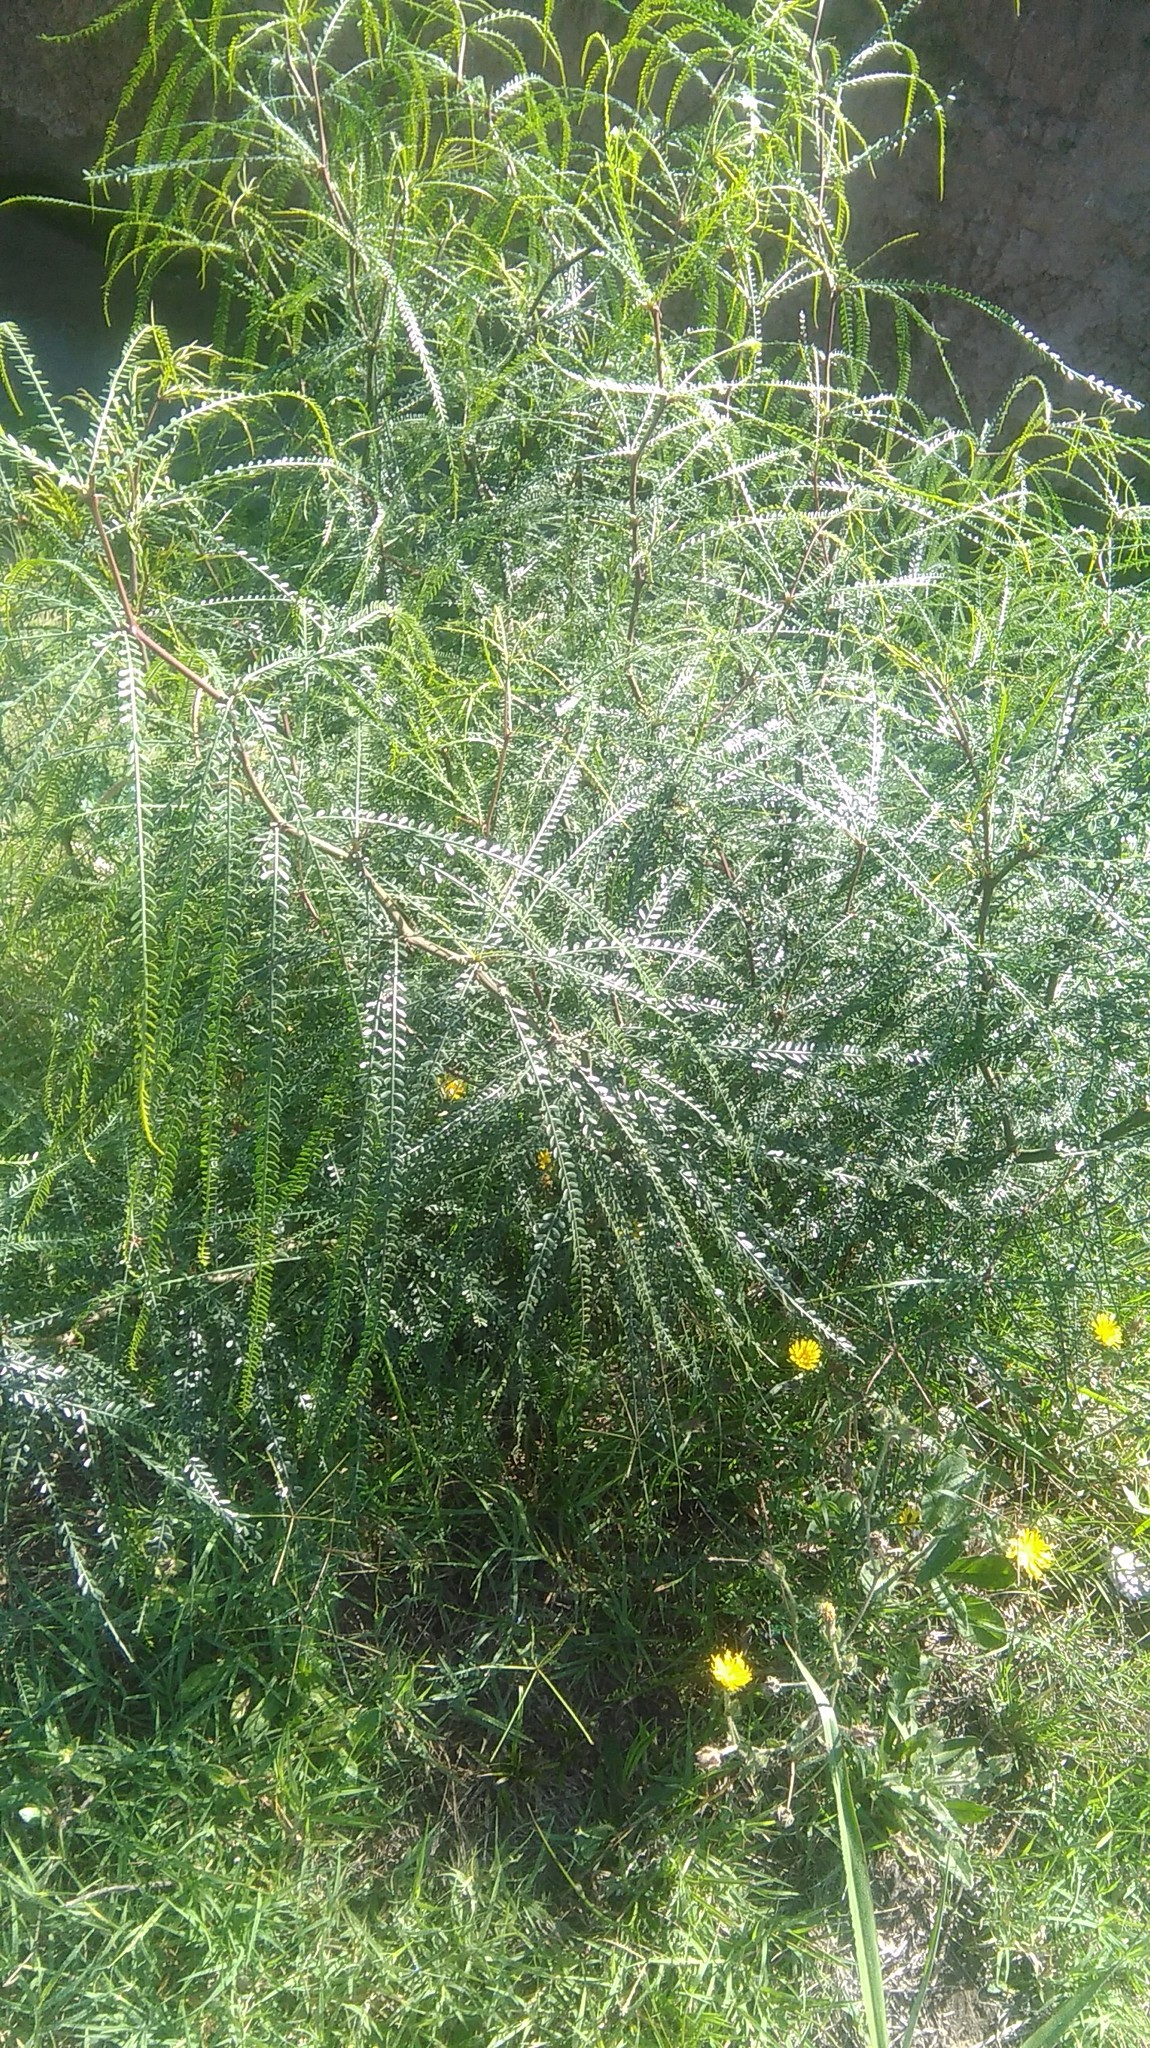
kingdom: Plantae
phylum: Tracheophyta
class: Magnoliopsida
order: Fabales
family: Fabaceae
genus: Parkinsonia
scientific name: Parkinsonia aculeata
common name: Jerusalem thorn
